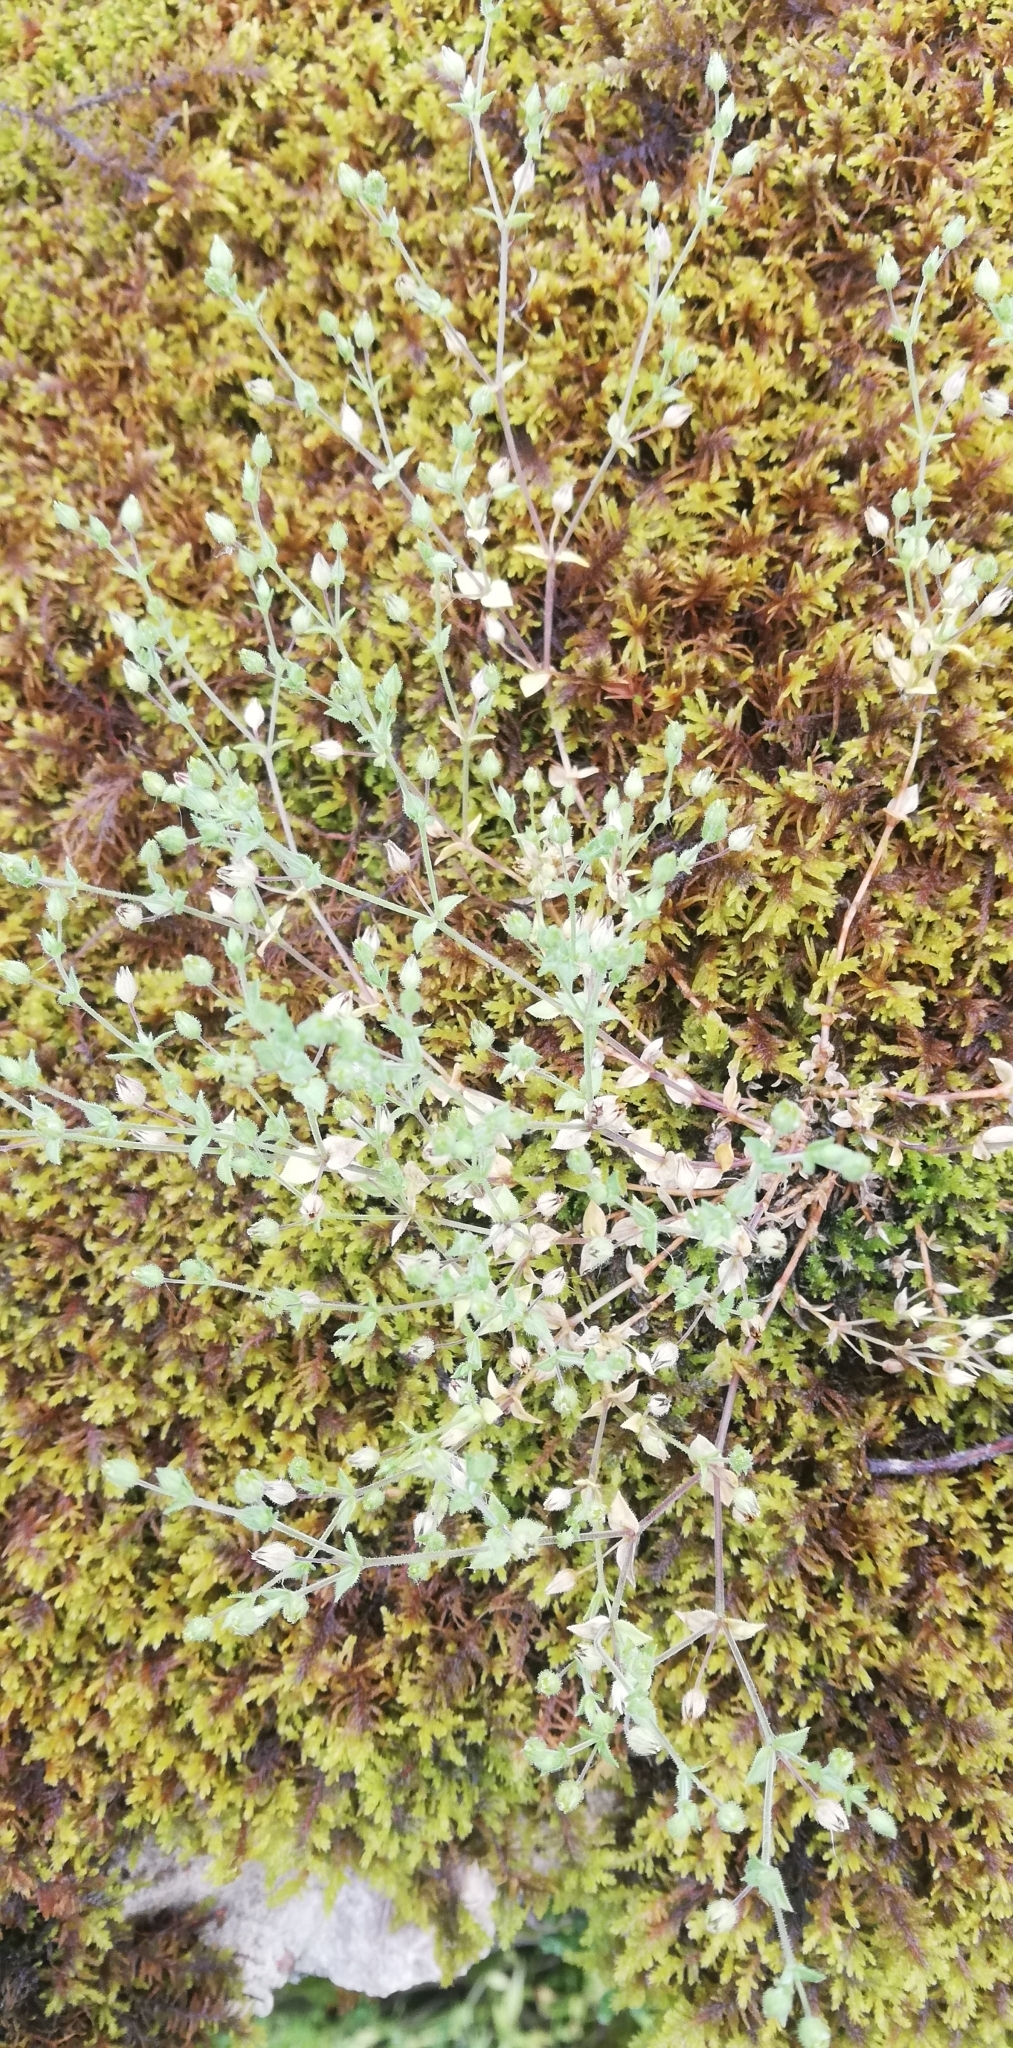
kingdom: Plantae
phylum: Tracheophyta
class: Magnoliopsida
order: Caryophyllales
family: Caryophyllaceae
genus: Arenaria
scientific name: Arenaria serpyllifolia
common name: Thyme-leaved sandwort
